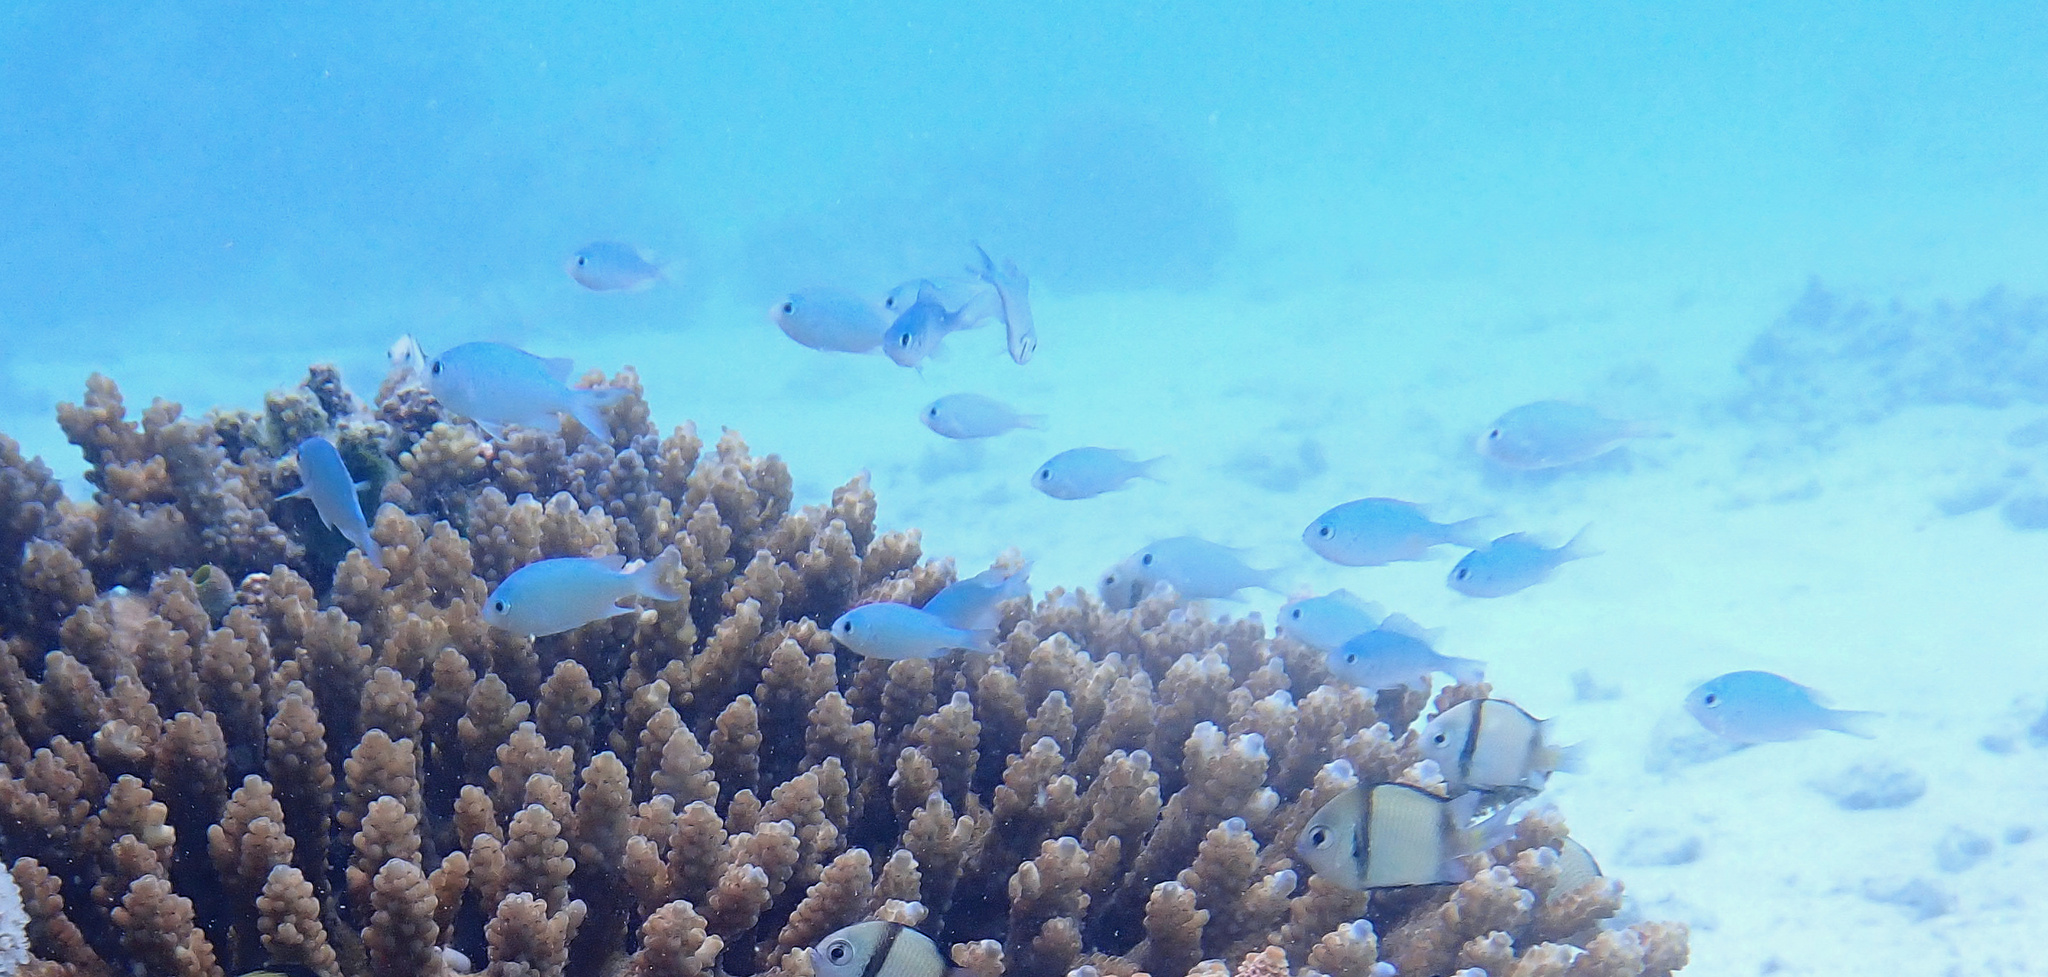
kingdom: Animalia
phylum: Chordata
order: Perciformes
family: Pomacentridae
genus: Chromis
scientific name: Chromis viridis
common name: Blue-green chromis
